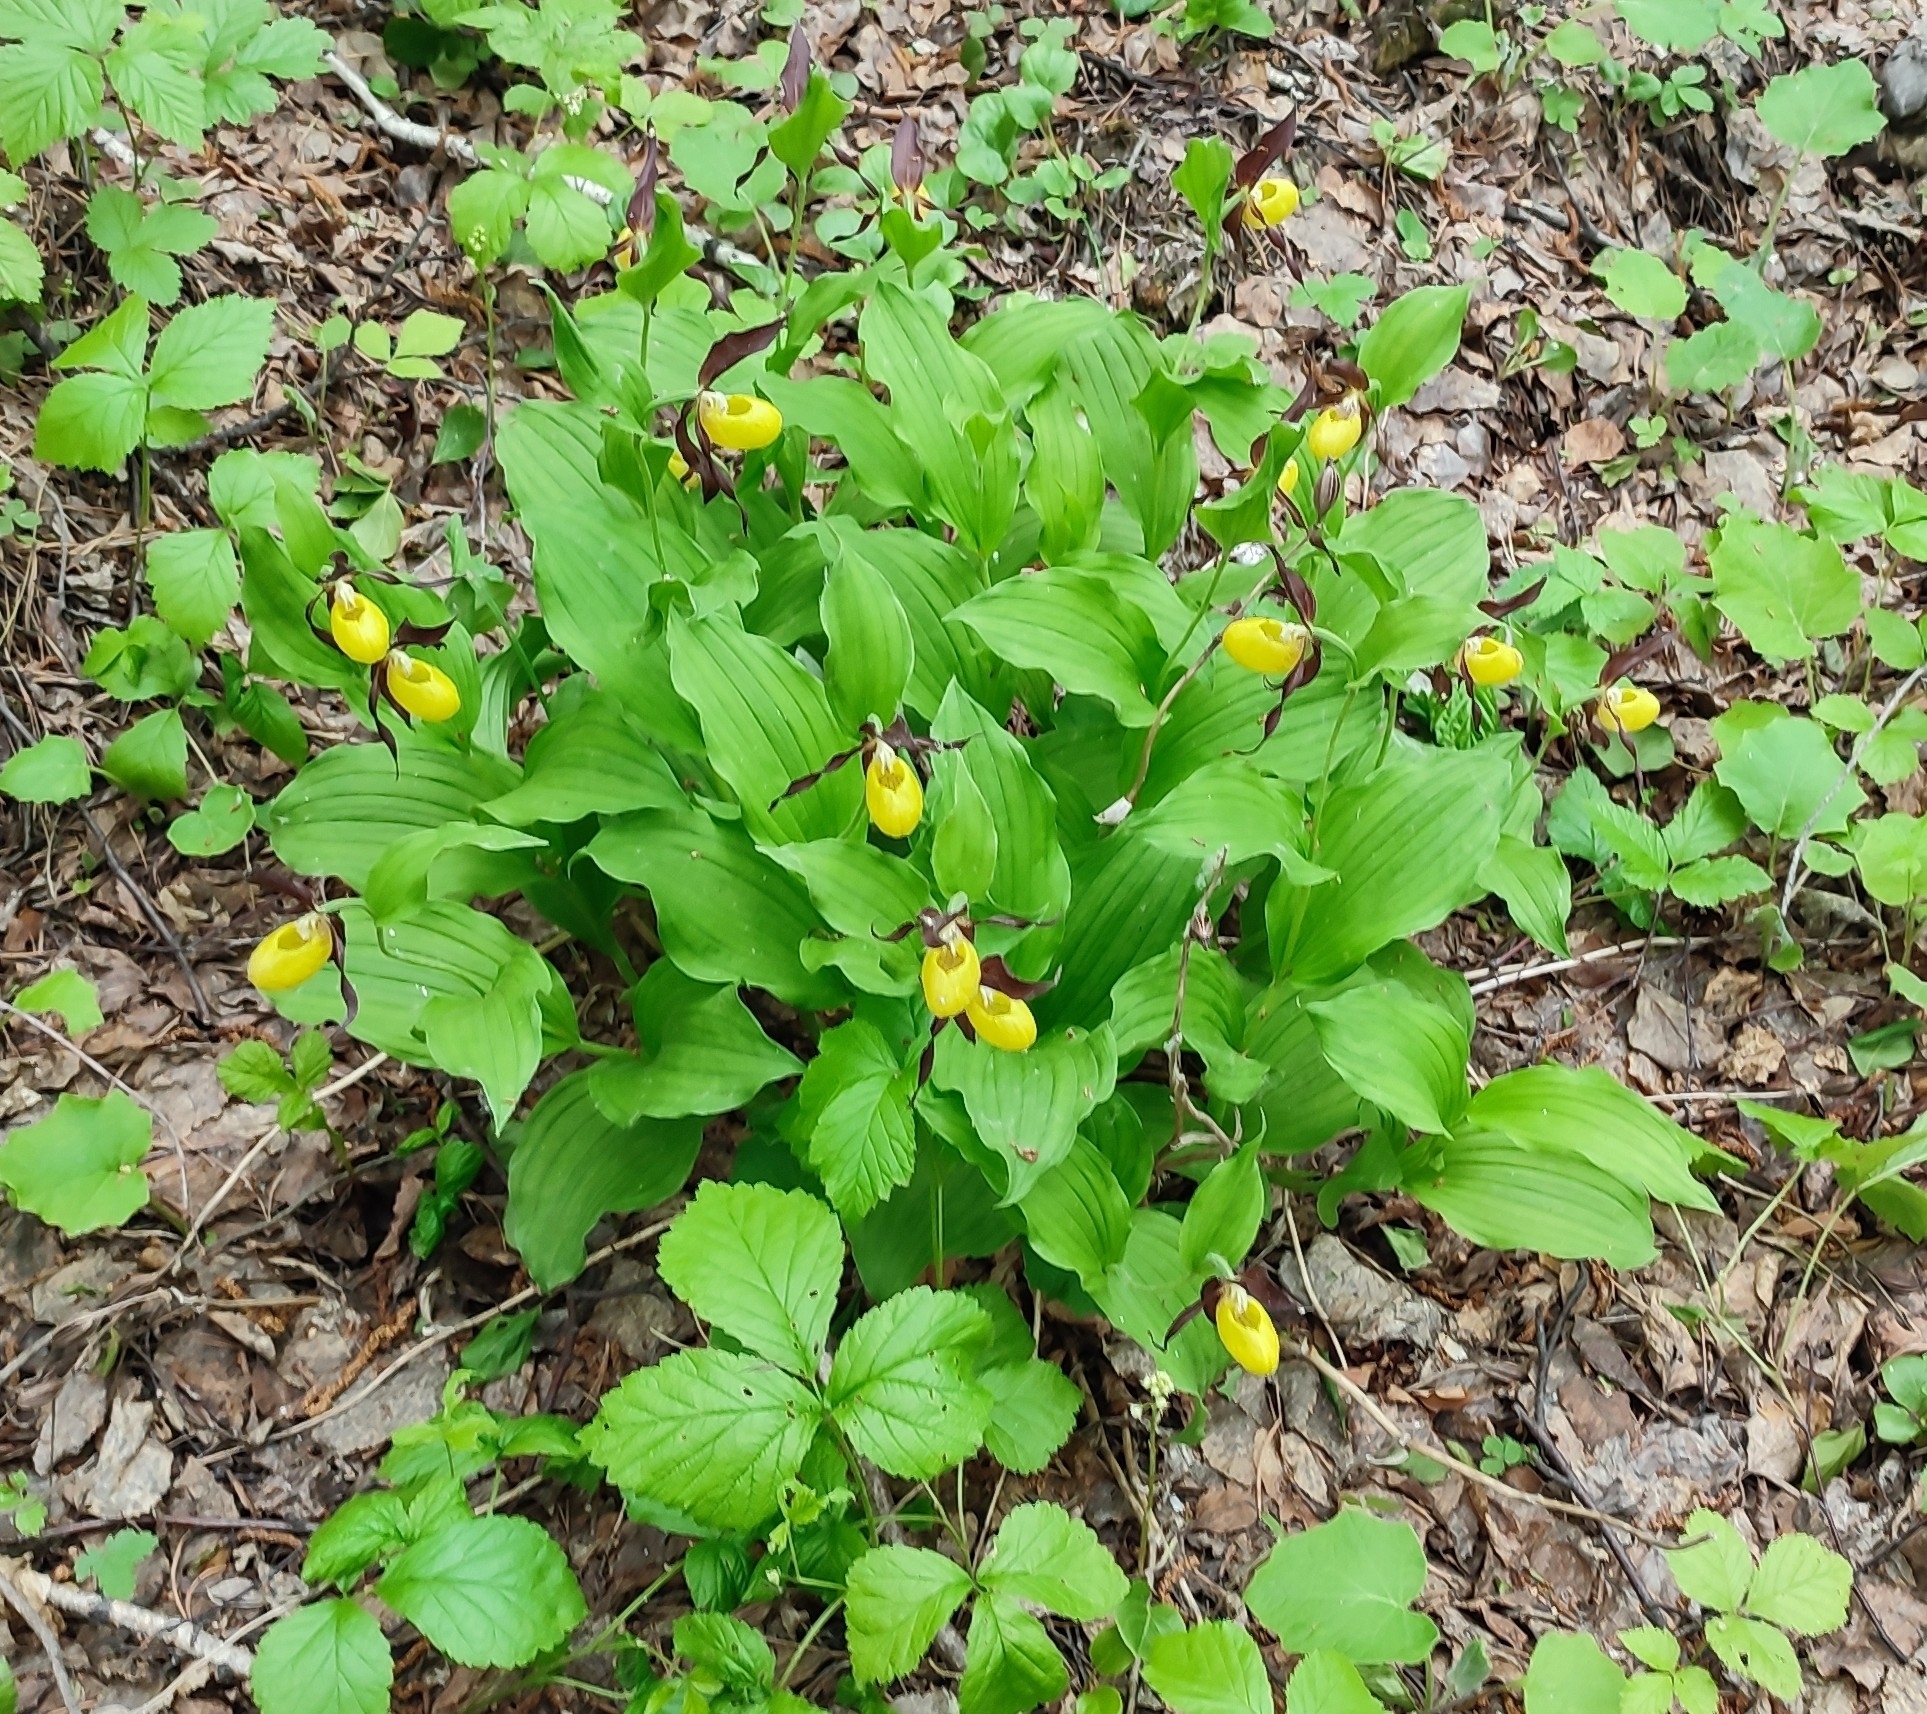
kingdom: Plantae
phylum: Tracheophyta
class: Liliopsida
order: Asparagales
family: Orchidaceae
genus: Cypripedium
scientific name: Cypripedium calceolus
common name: Lady's-slipper
